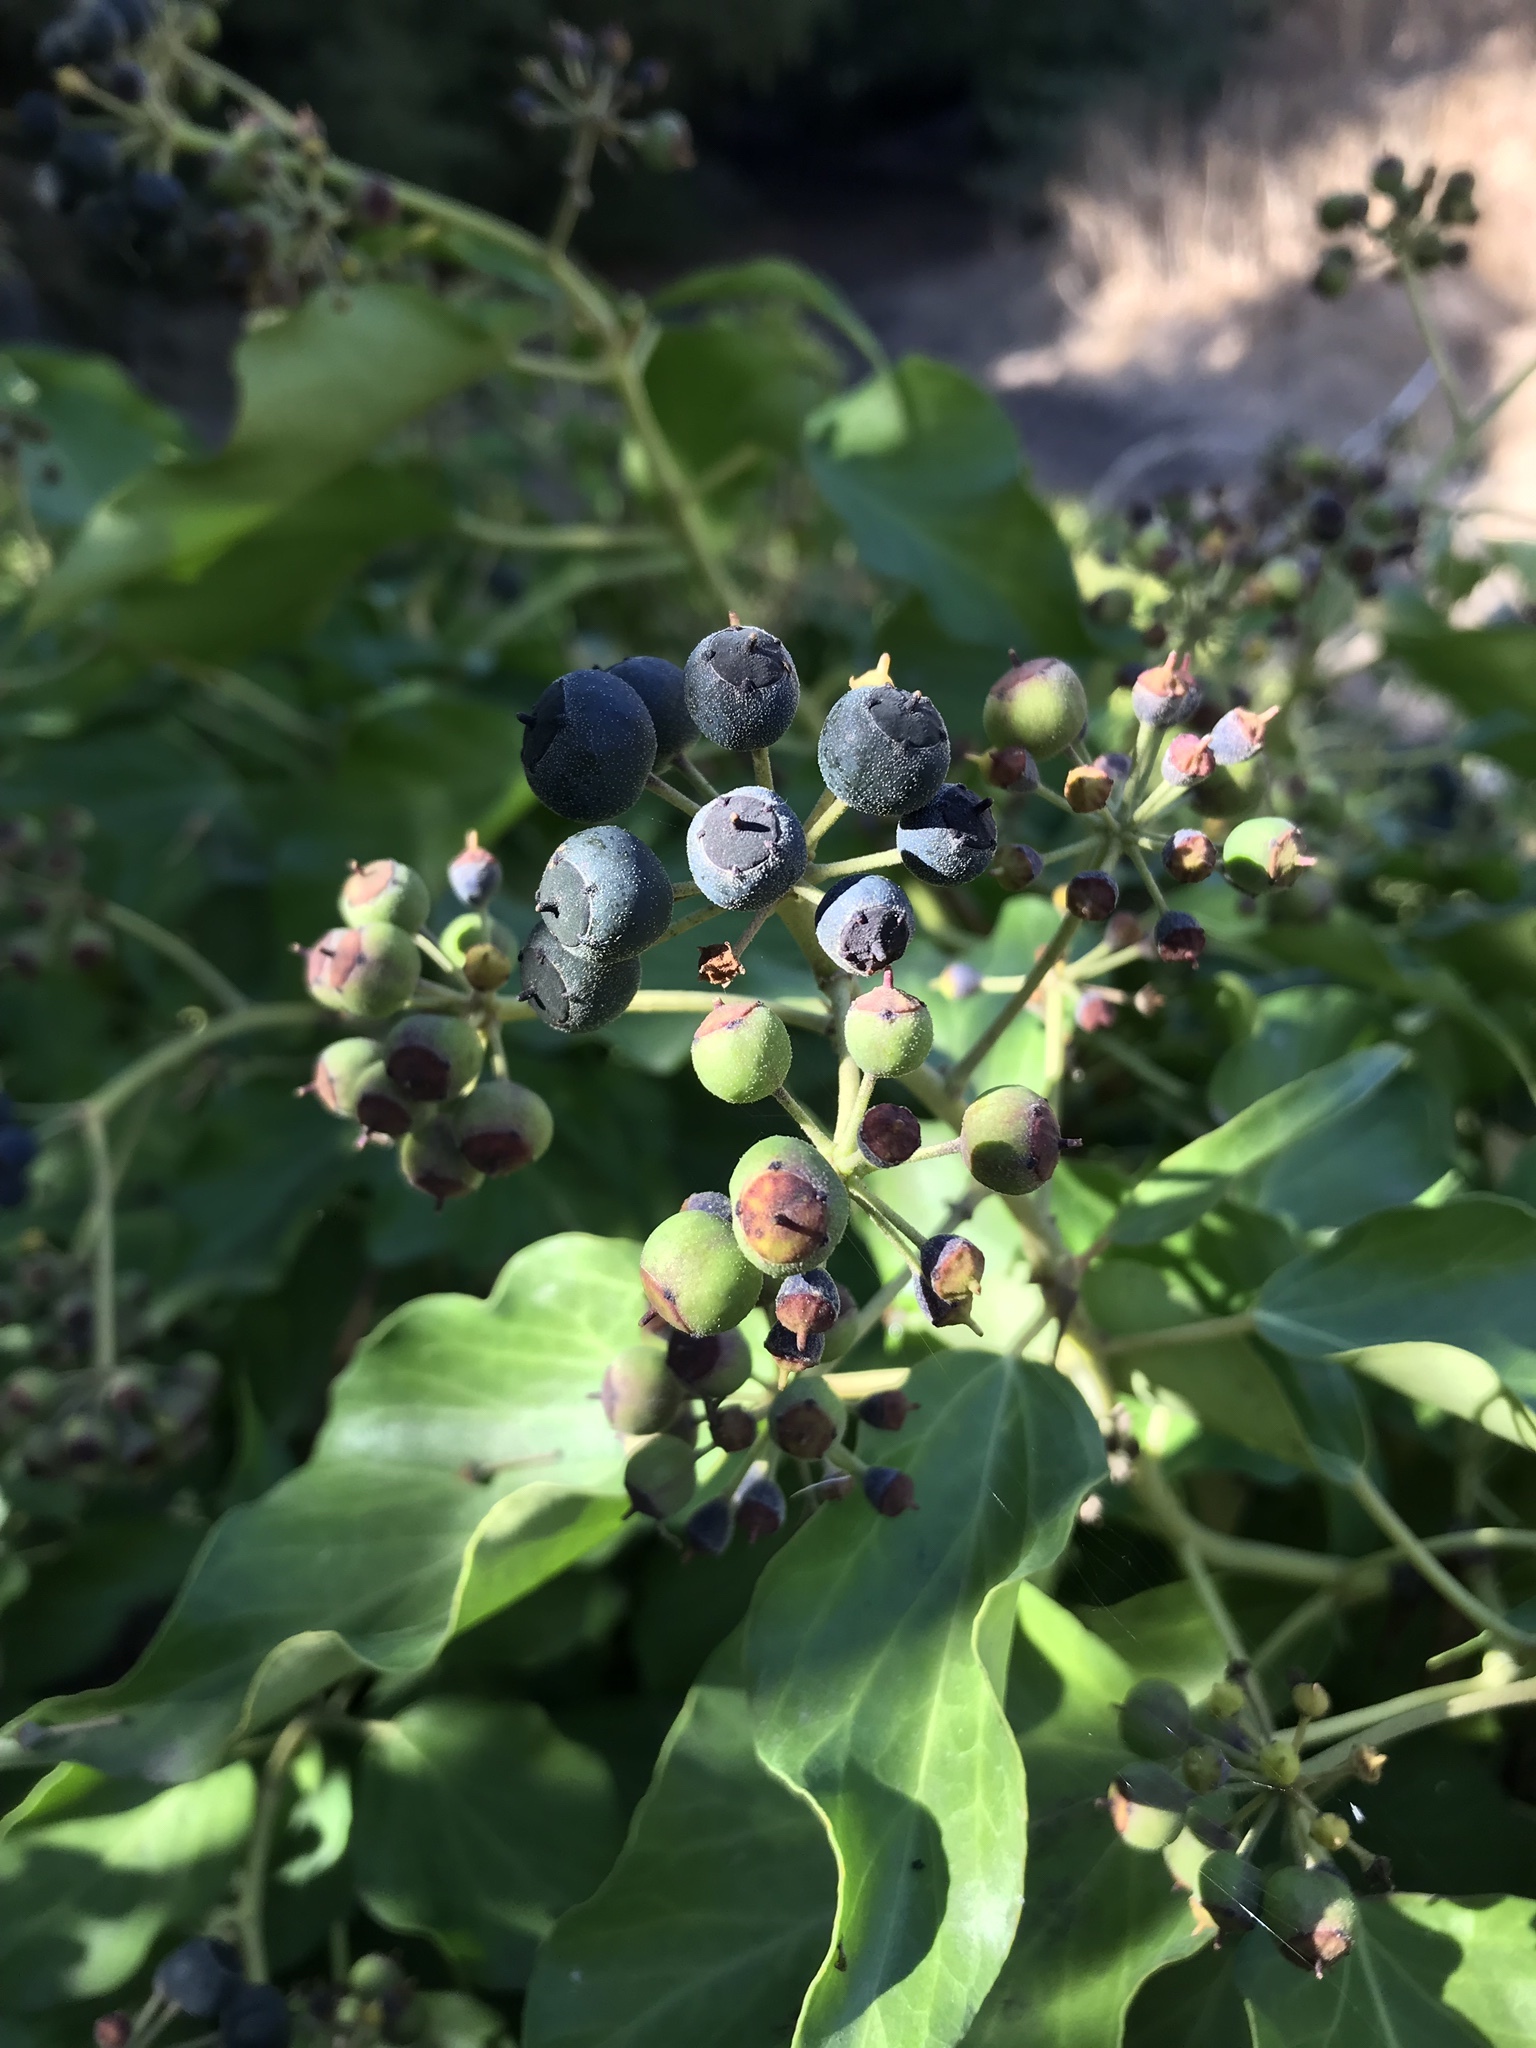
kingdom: Plantae
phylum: Tracheophyta
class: Magnoliopsida
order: Apiales
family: Araliaceae
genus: Hedera
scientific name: Hedera helix
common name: Ivy
